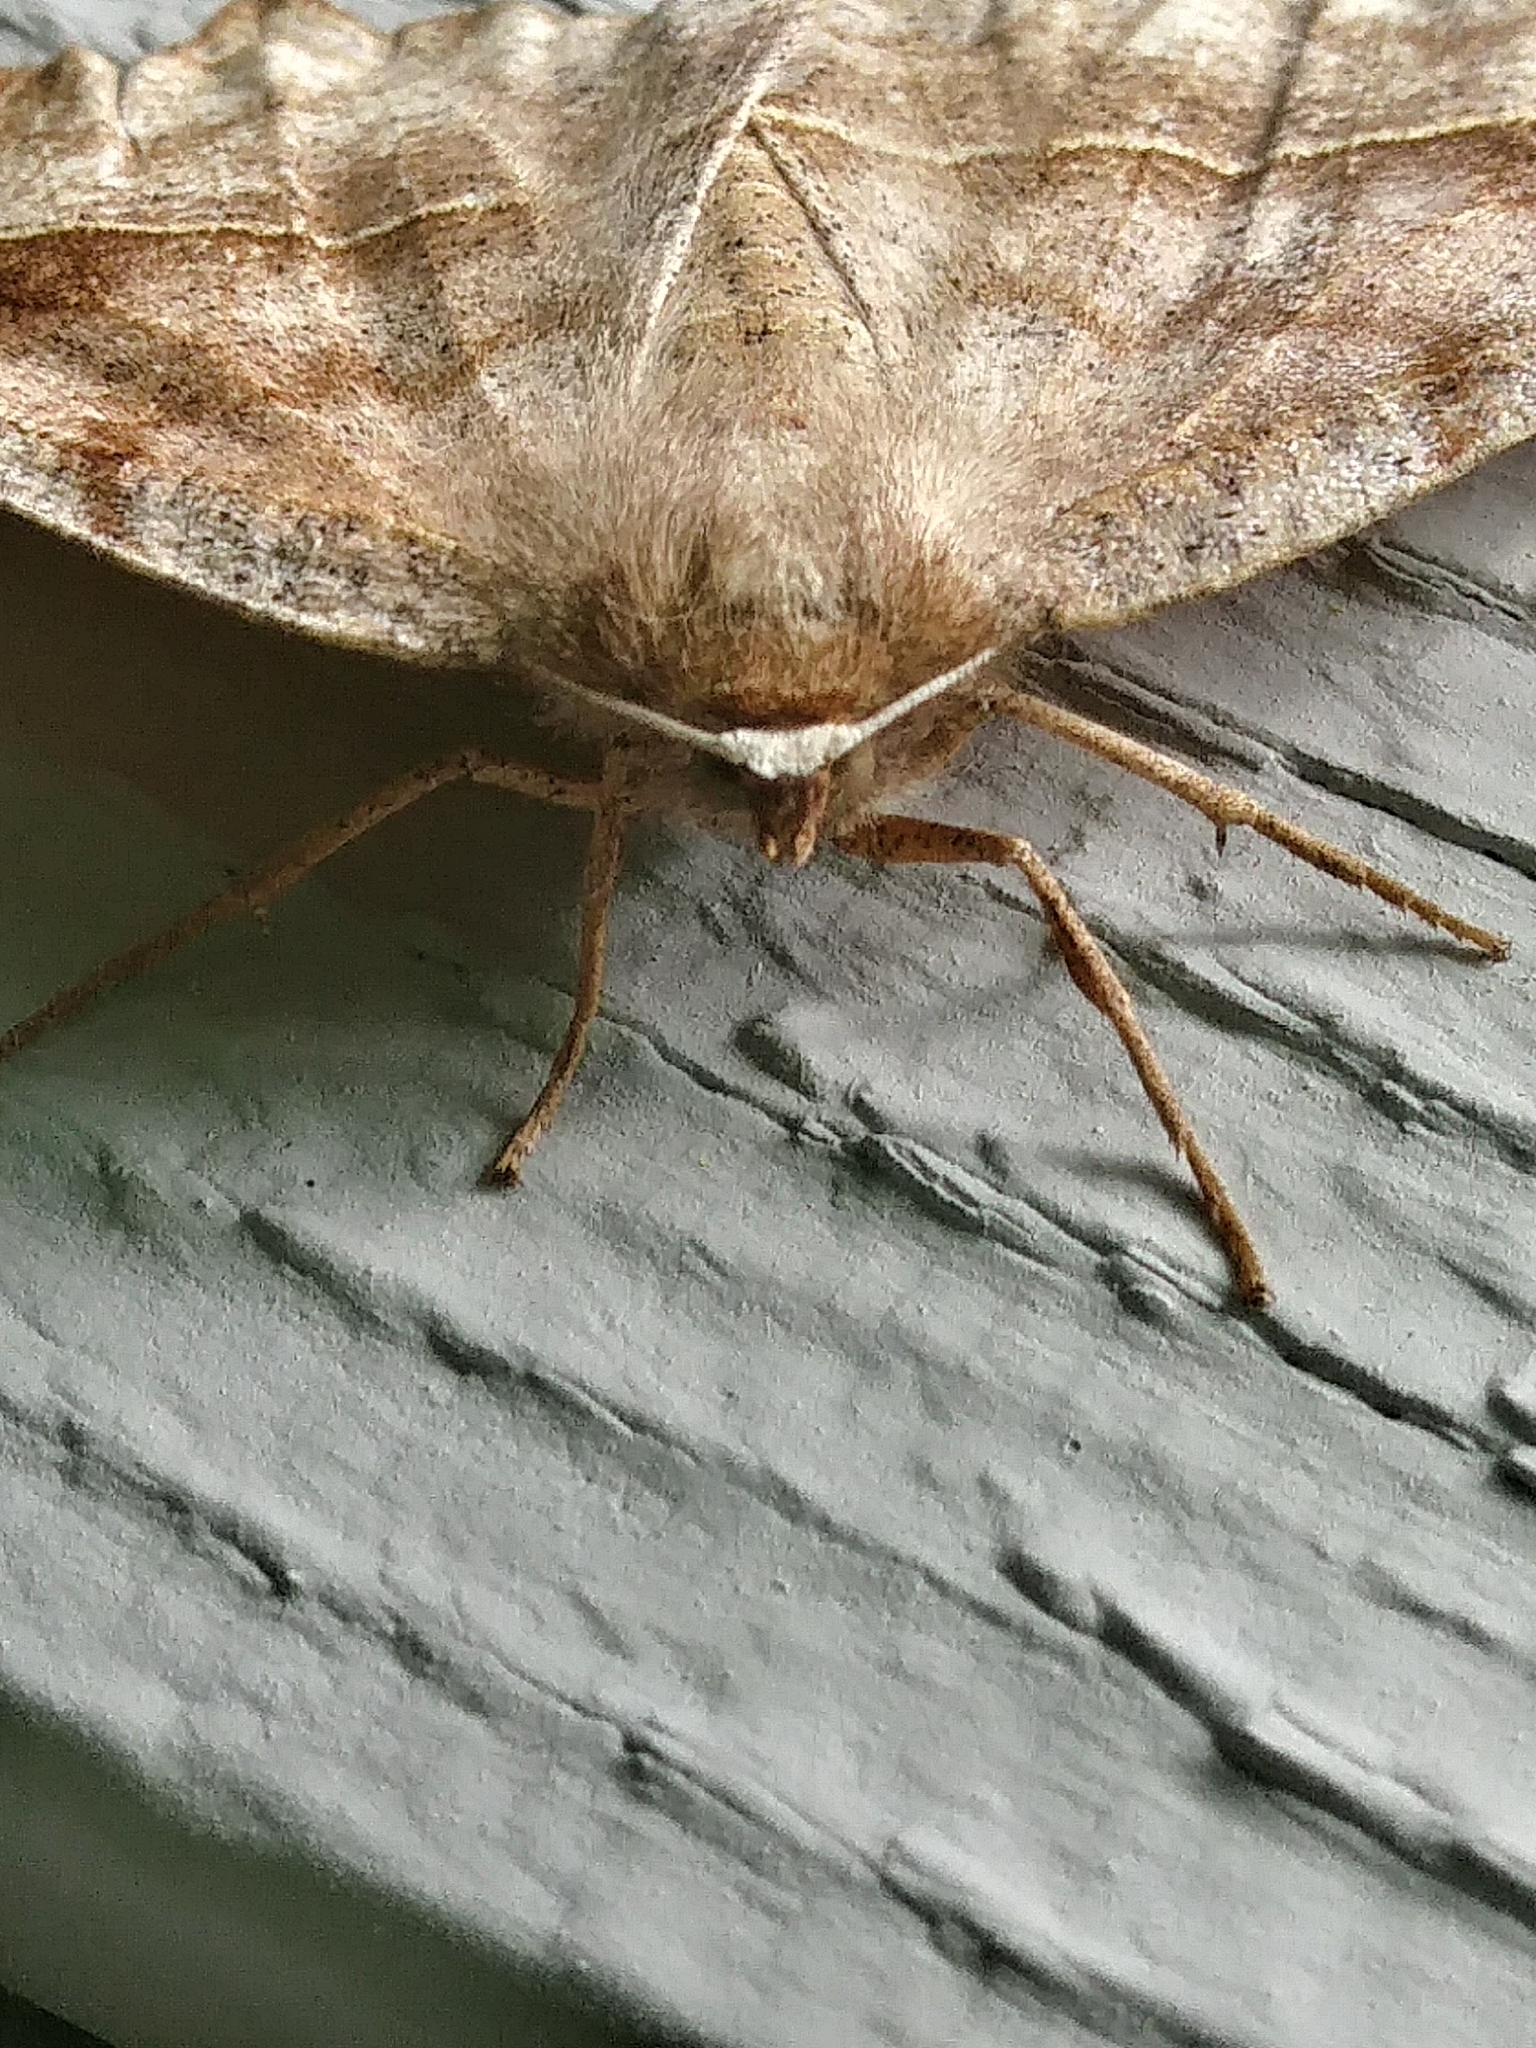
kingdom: Animalia
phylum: Arthropoda
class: Insecta
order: Lepidoptera
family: Geometridae
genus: Eutrapela
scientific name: Eutrapela clemataria
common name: Curved-toothed geometer
